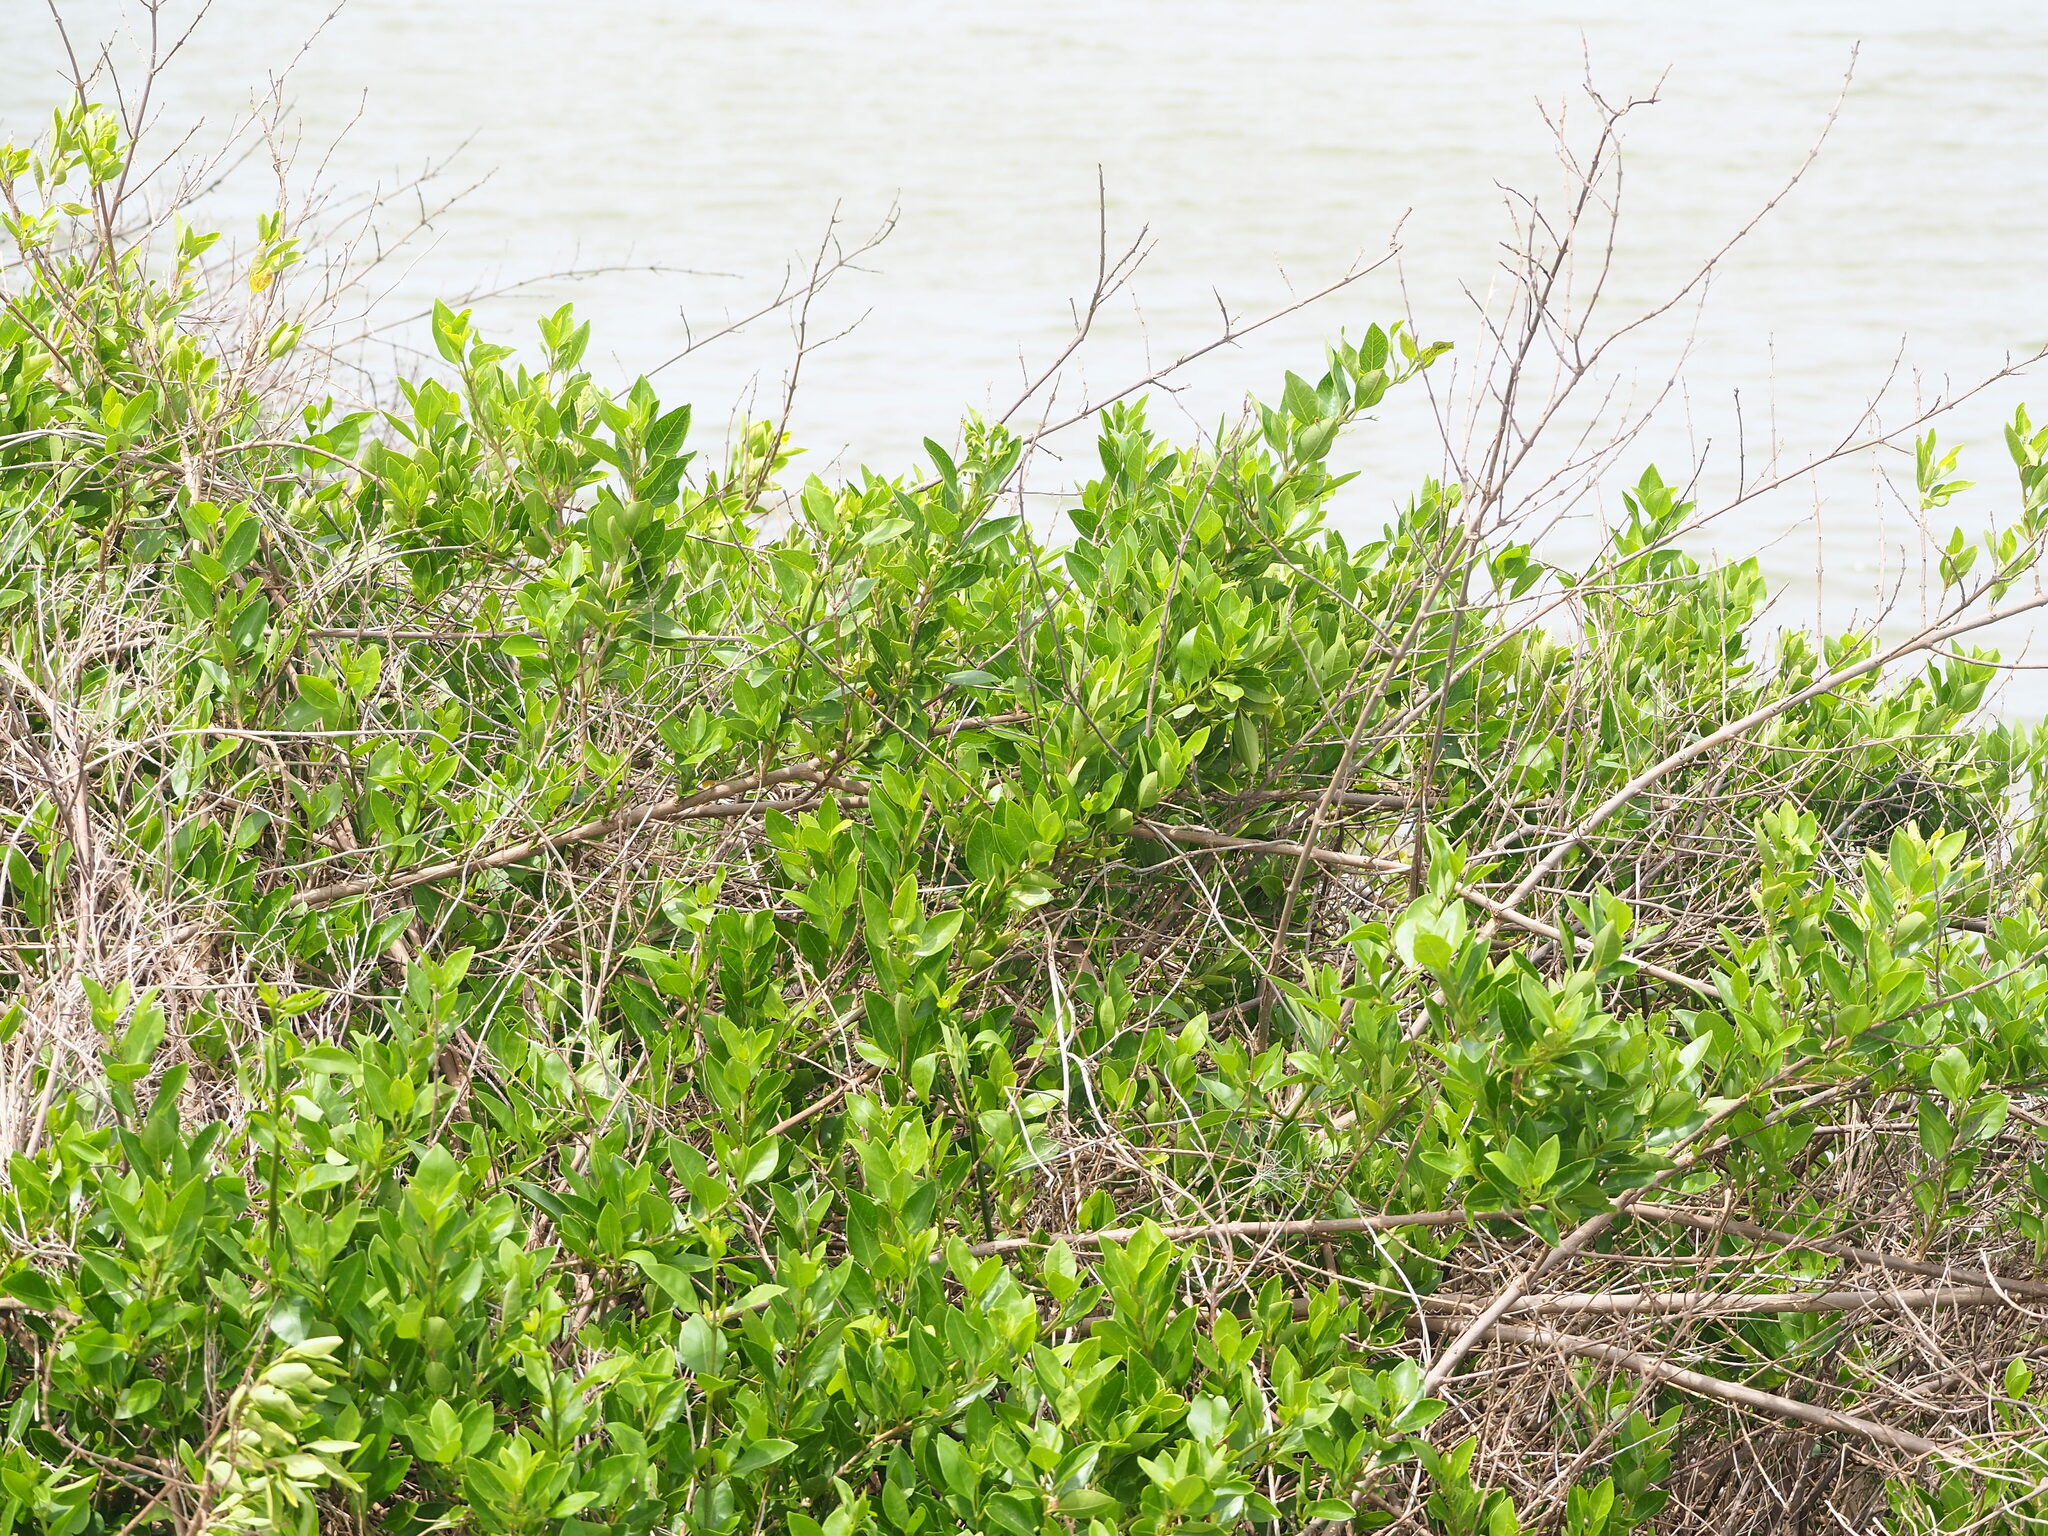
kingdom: Plantae
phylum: Tracheophyta
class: Magnoliopsida
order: Lamiales
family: Lamiaceae
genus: Volkameria
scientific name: Volkameria inermis
